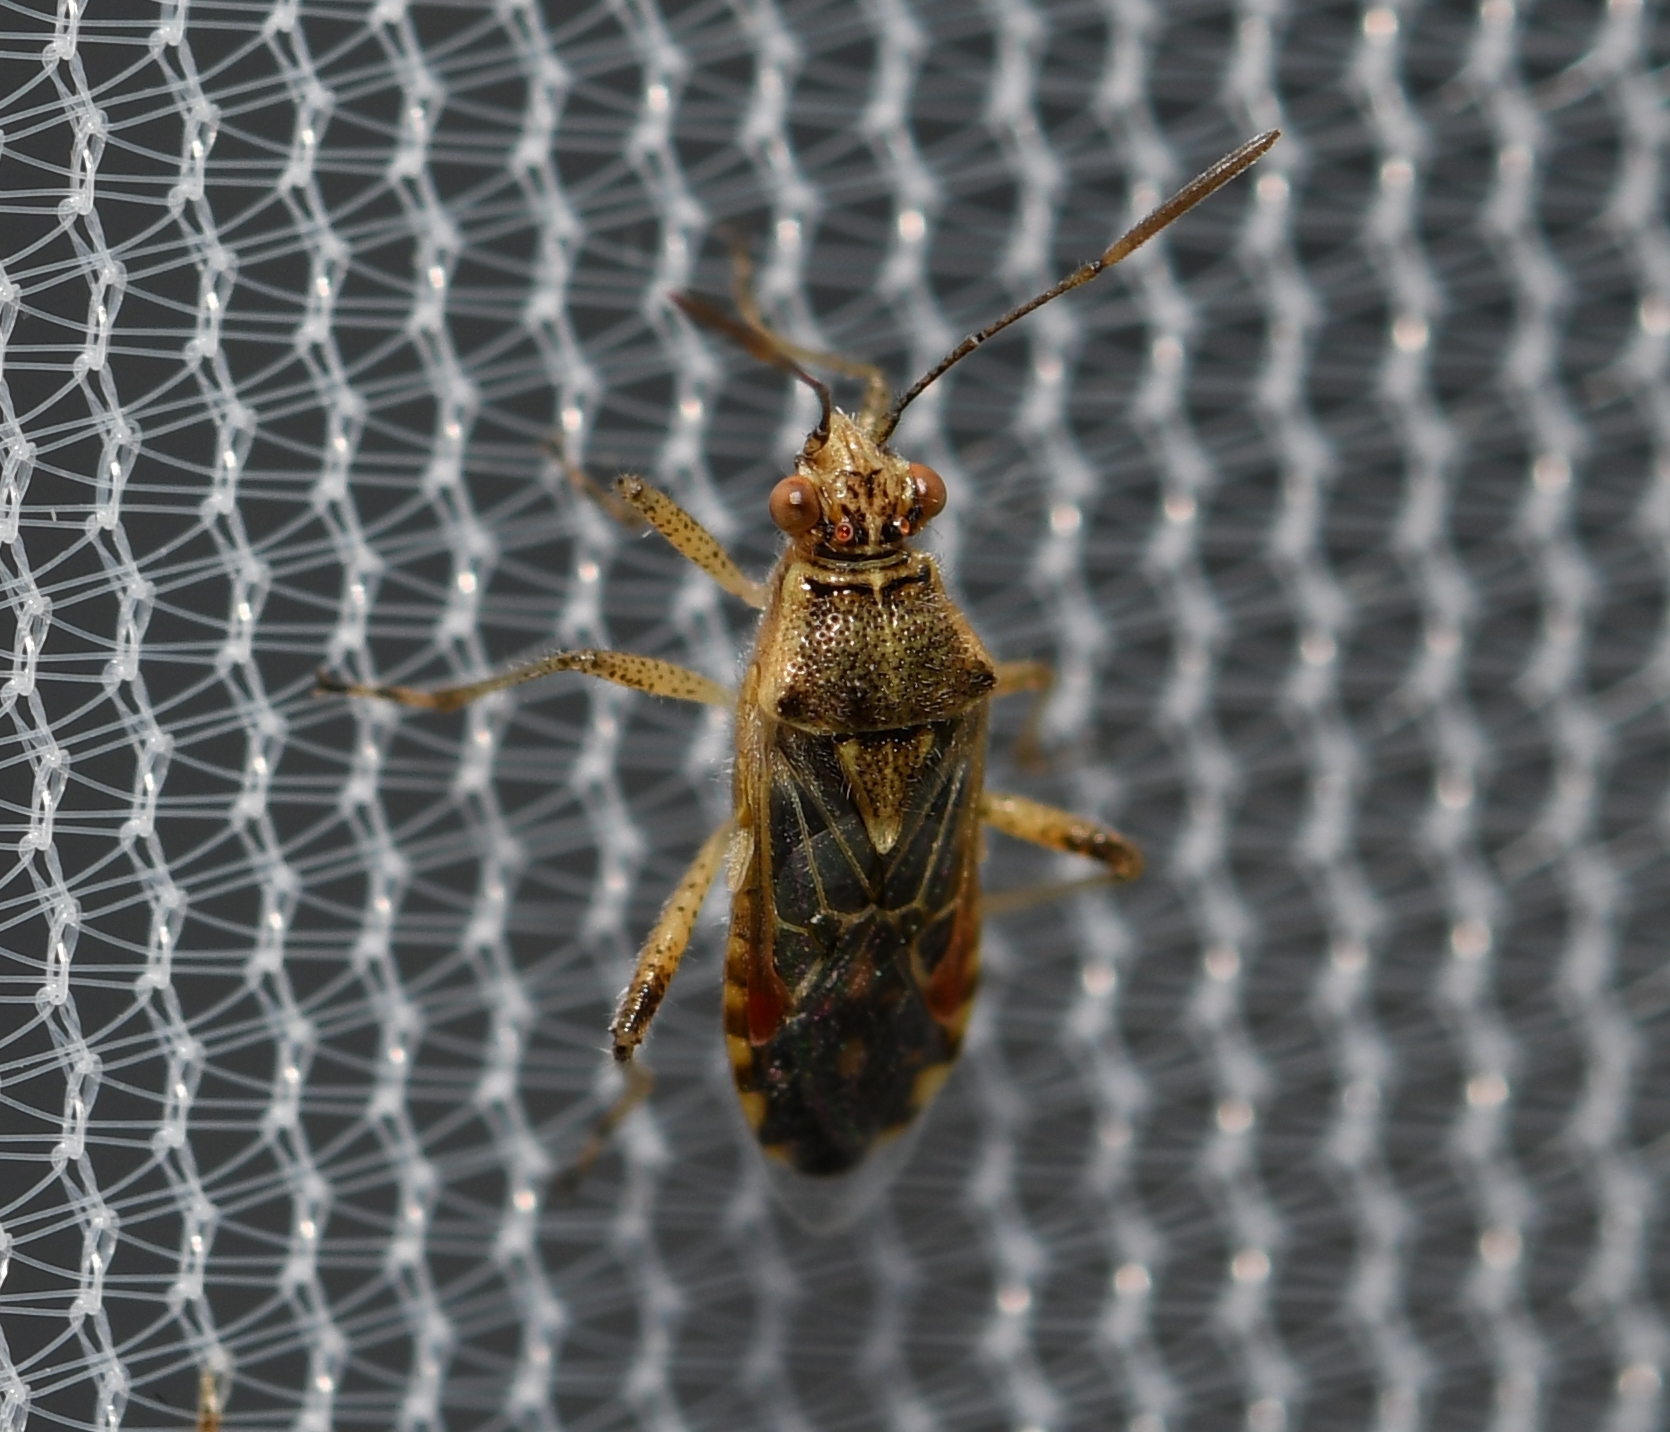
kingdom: Animalia
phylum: Arthropoda
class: Insecta
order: Hemiptera
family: Rhopalidae
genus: Liorhyssus
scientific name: Liorhyssus hyalinus
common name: Scentless plant bug
